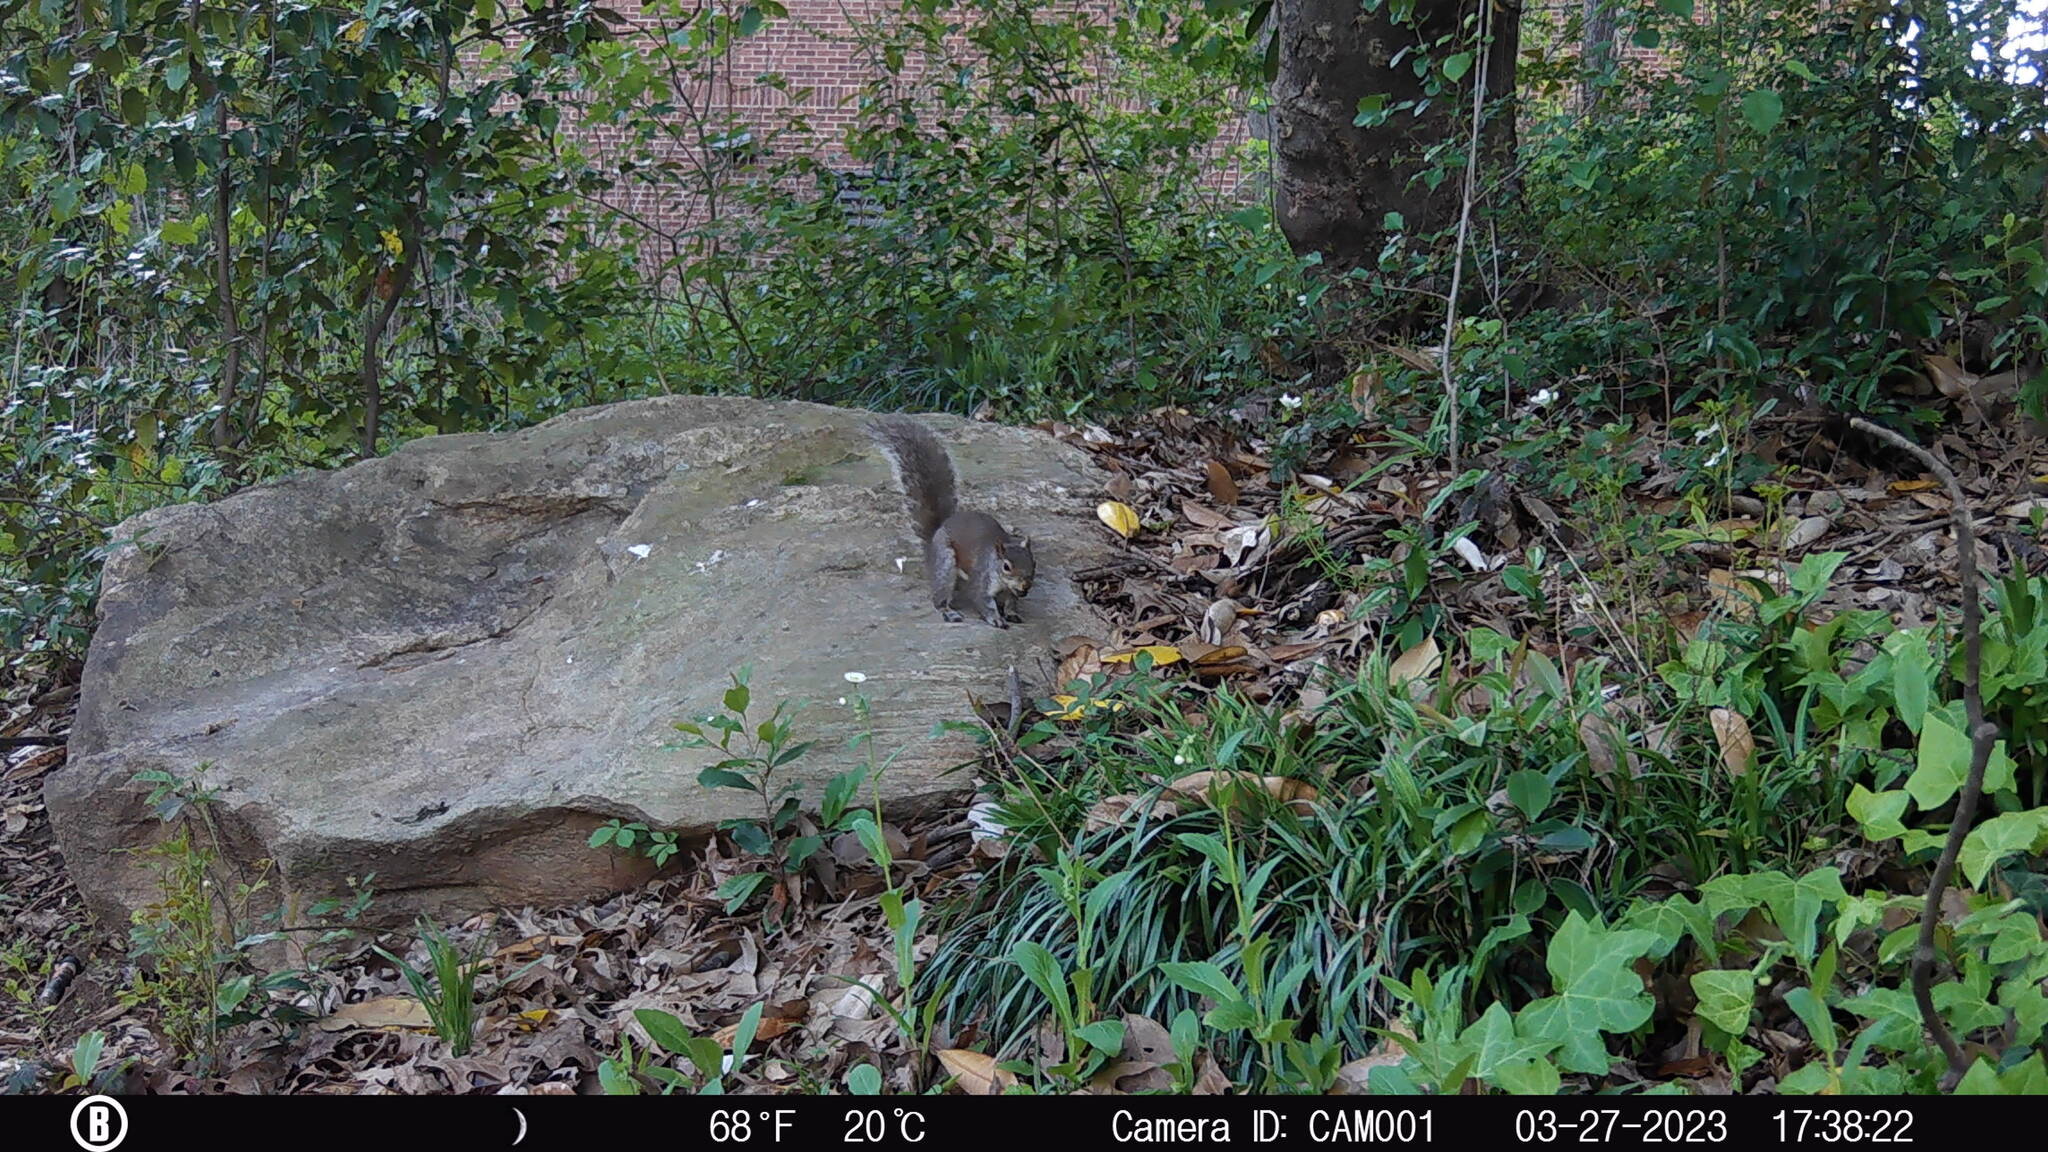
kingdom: Animalia
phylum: Chordata
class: Mammalia
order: Rodentia
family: Sciuridae
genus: Sciurus
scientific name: Sciurus carolinensis
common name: Eastern gray squirrel
